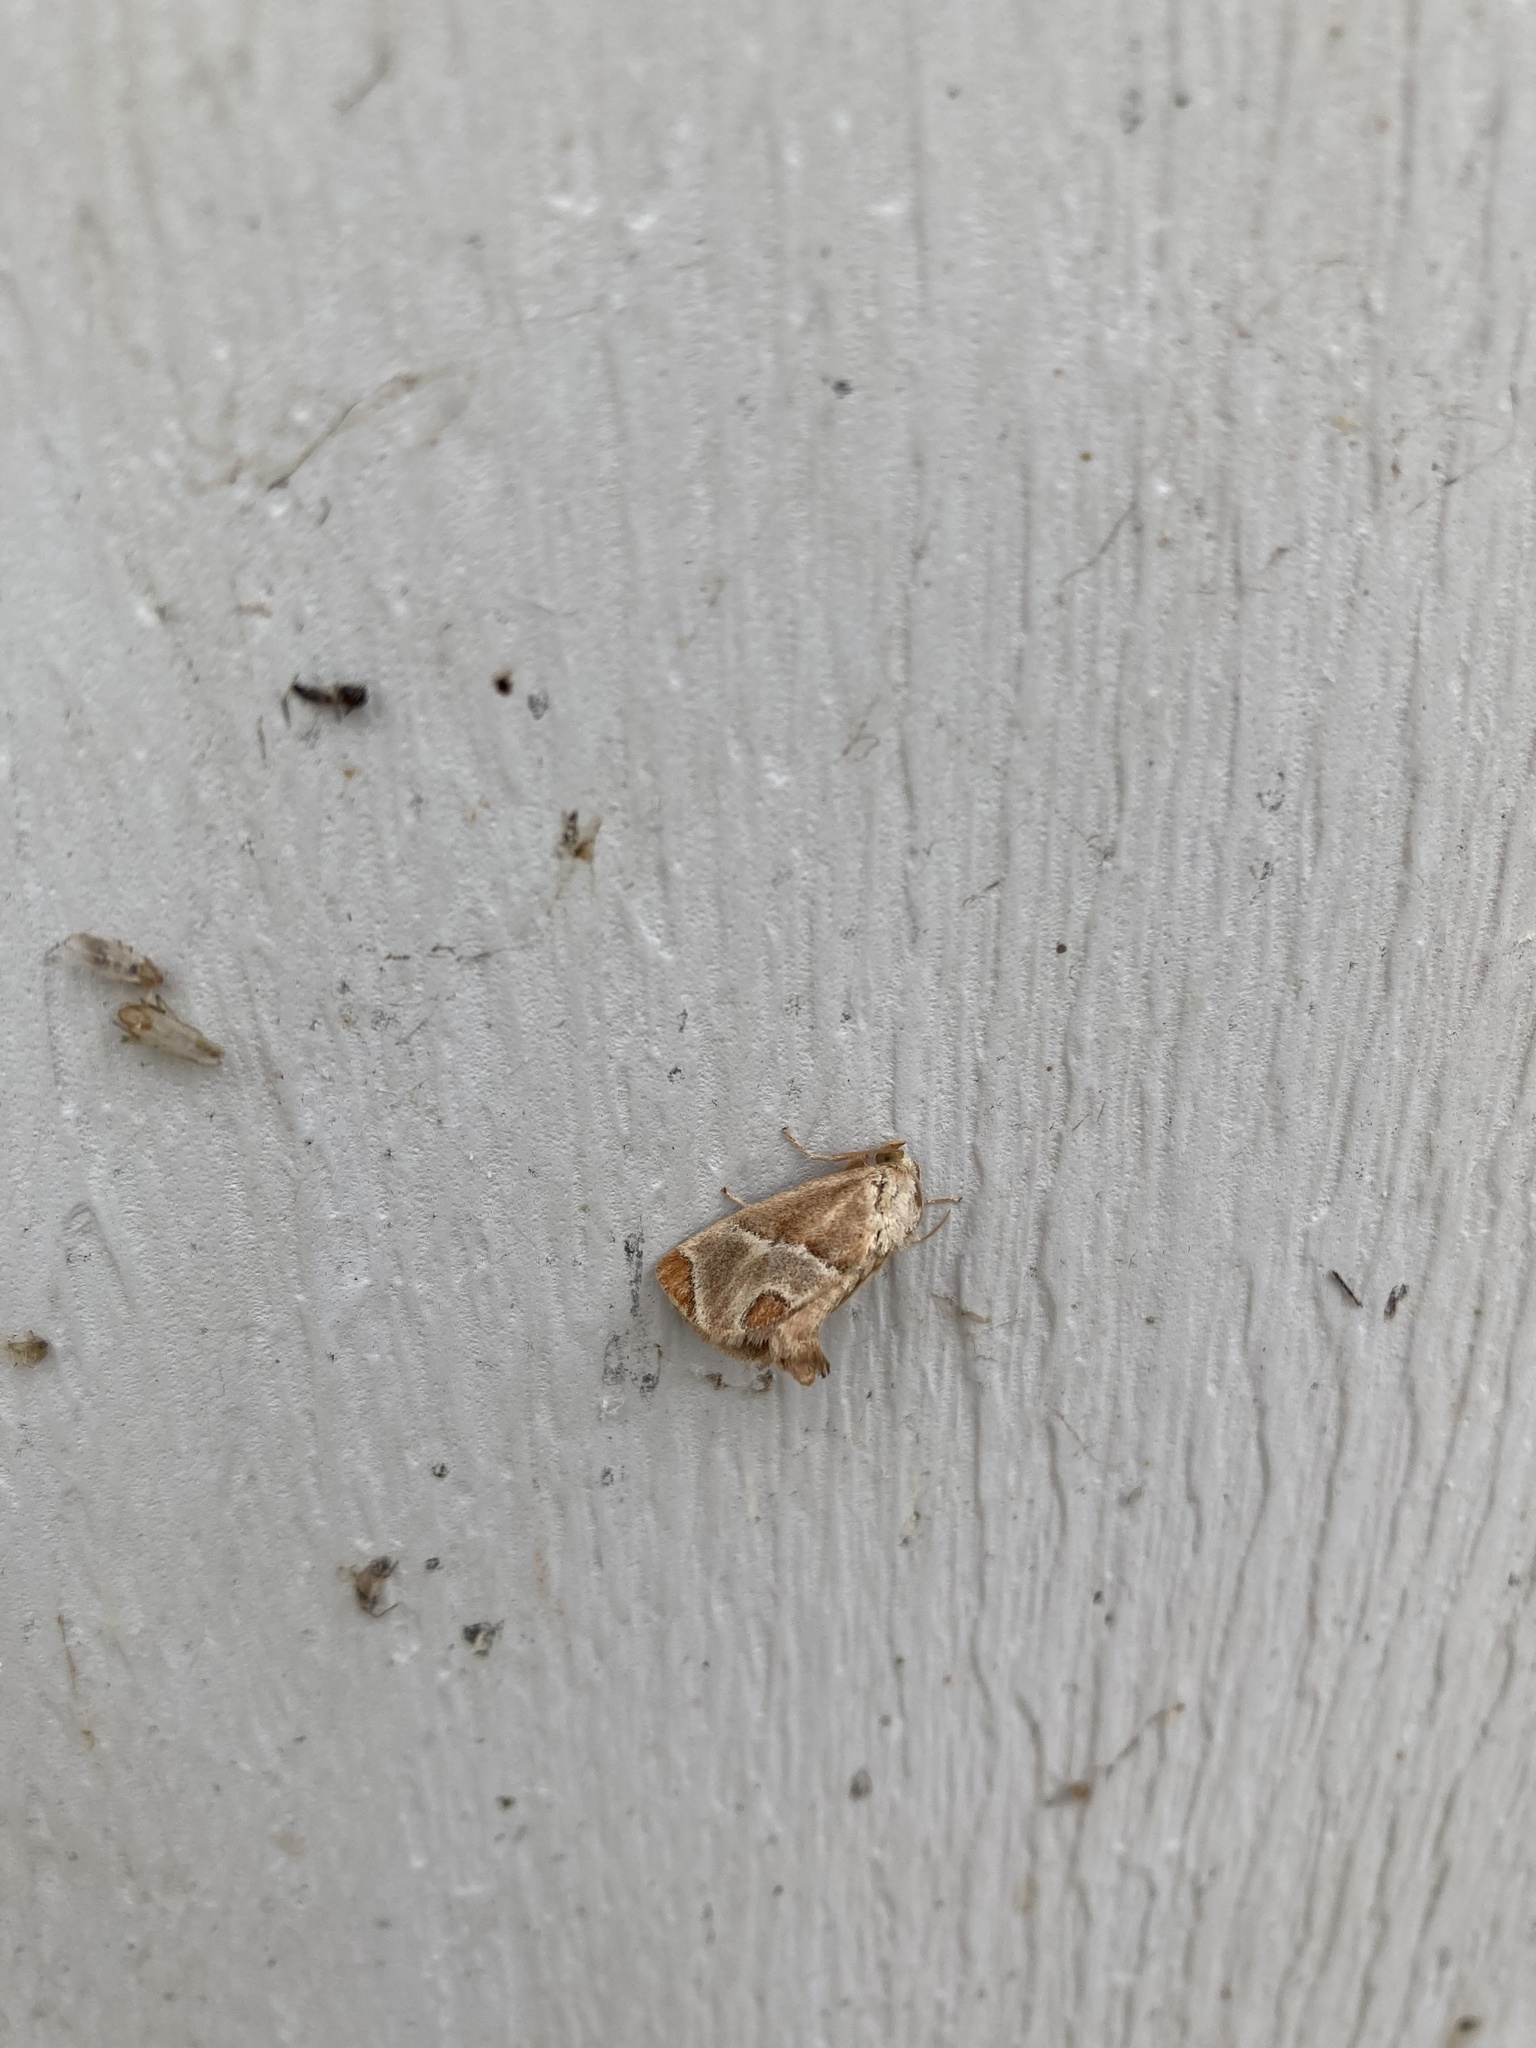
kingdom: Animalia
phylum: Arthropoda
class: Insecta
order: Lepidoptera
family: Limacodidae
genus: Apoda
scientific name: Apoda biguttata
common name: Shagreened slug moth
